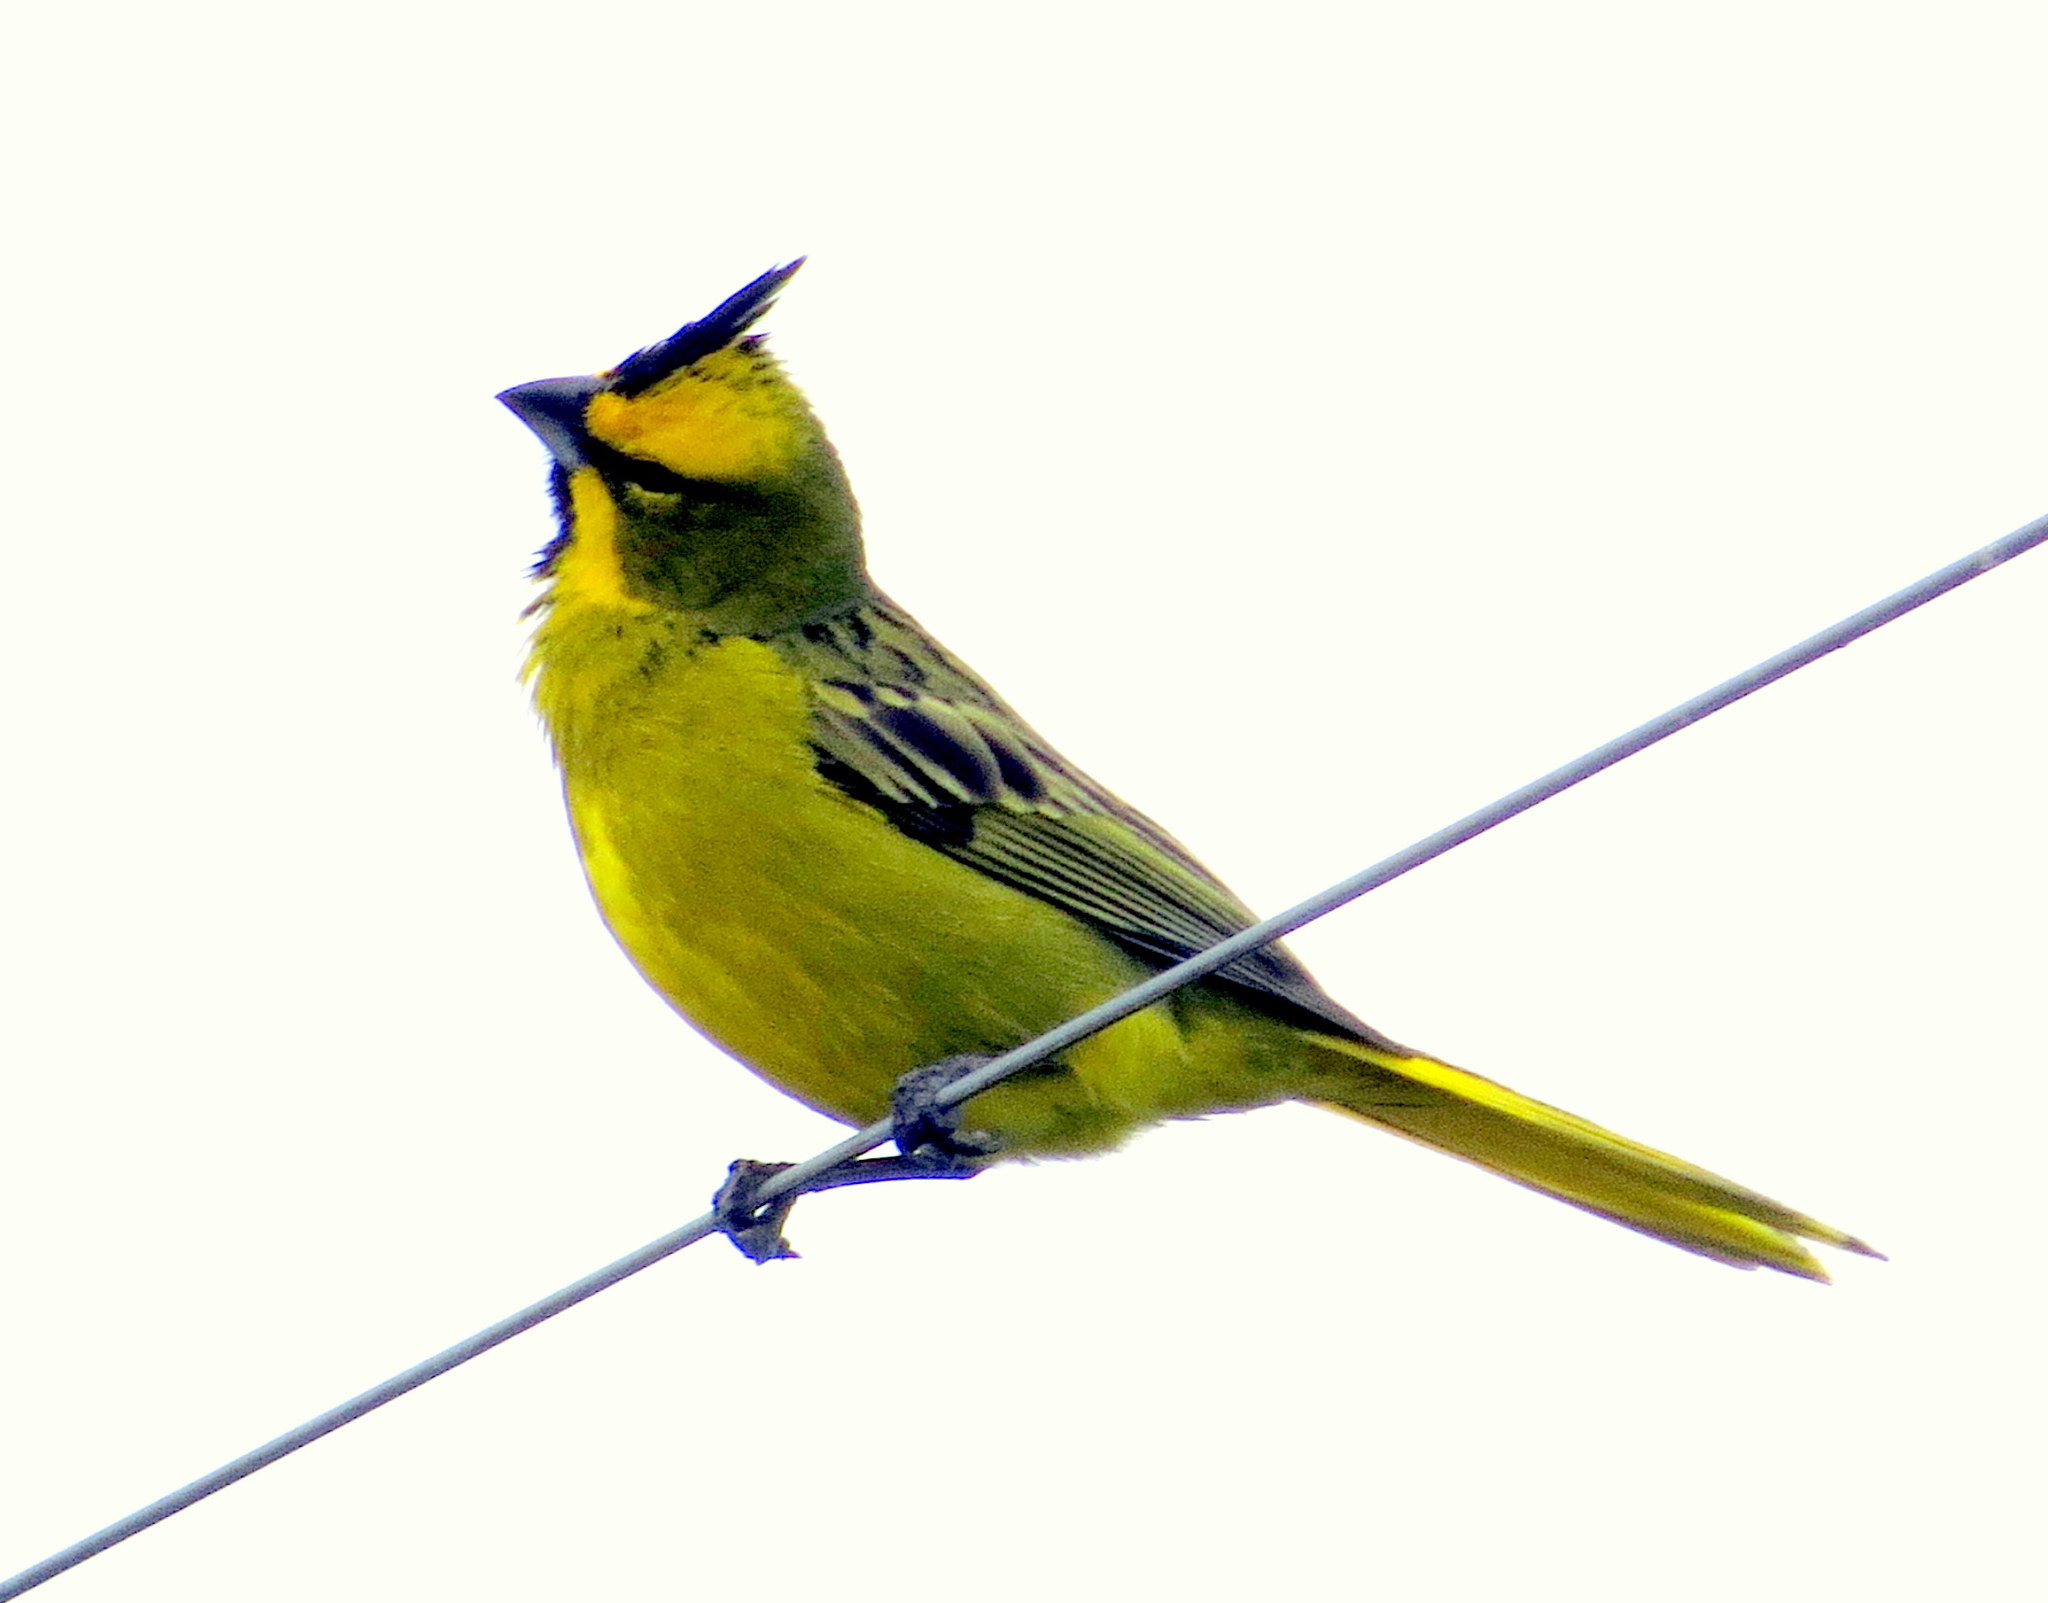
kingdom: Animalia
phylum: Chordata
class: Aves
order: Passeriformes
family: Thraupidae
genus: Gubernatrix
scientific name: Gubernatrix cristata
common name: Yellow cardinal
